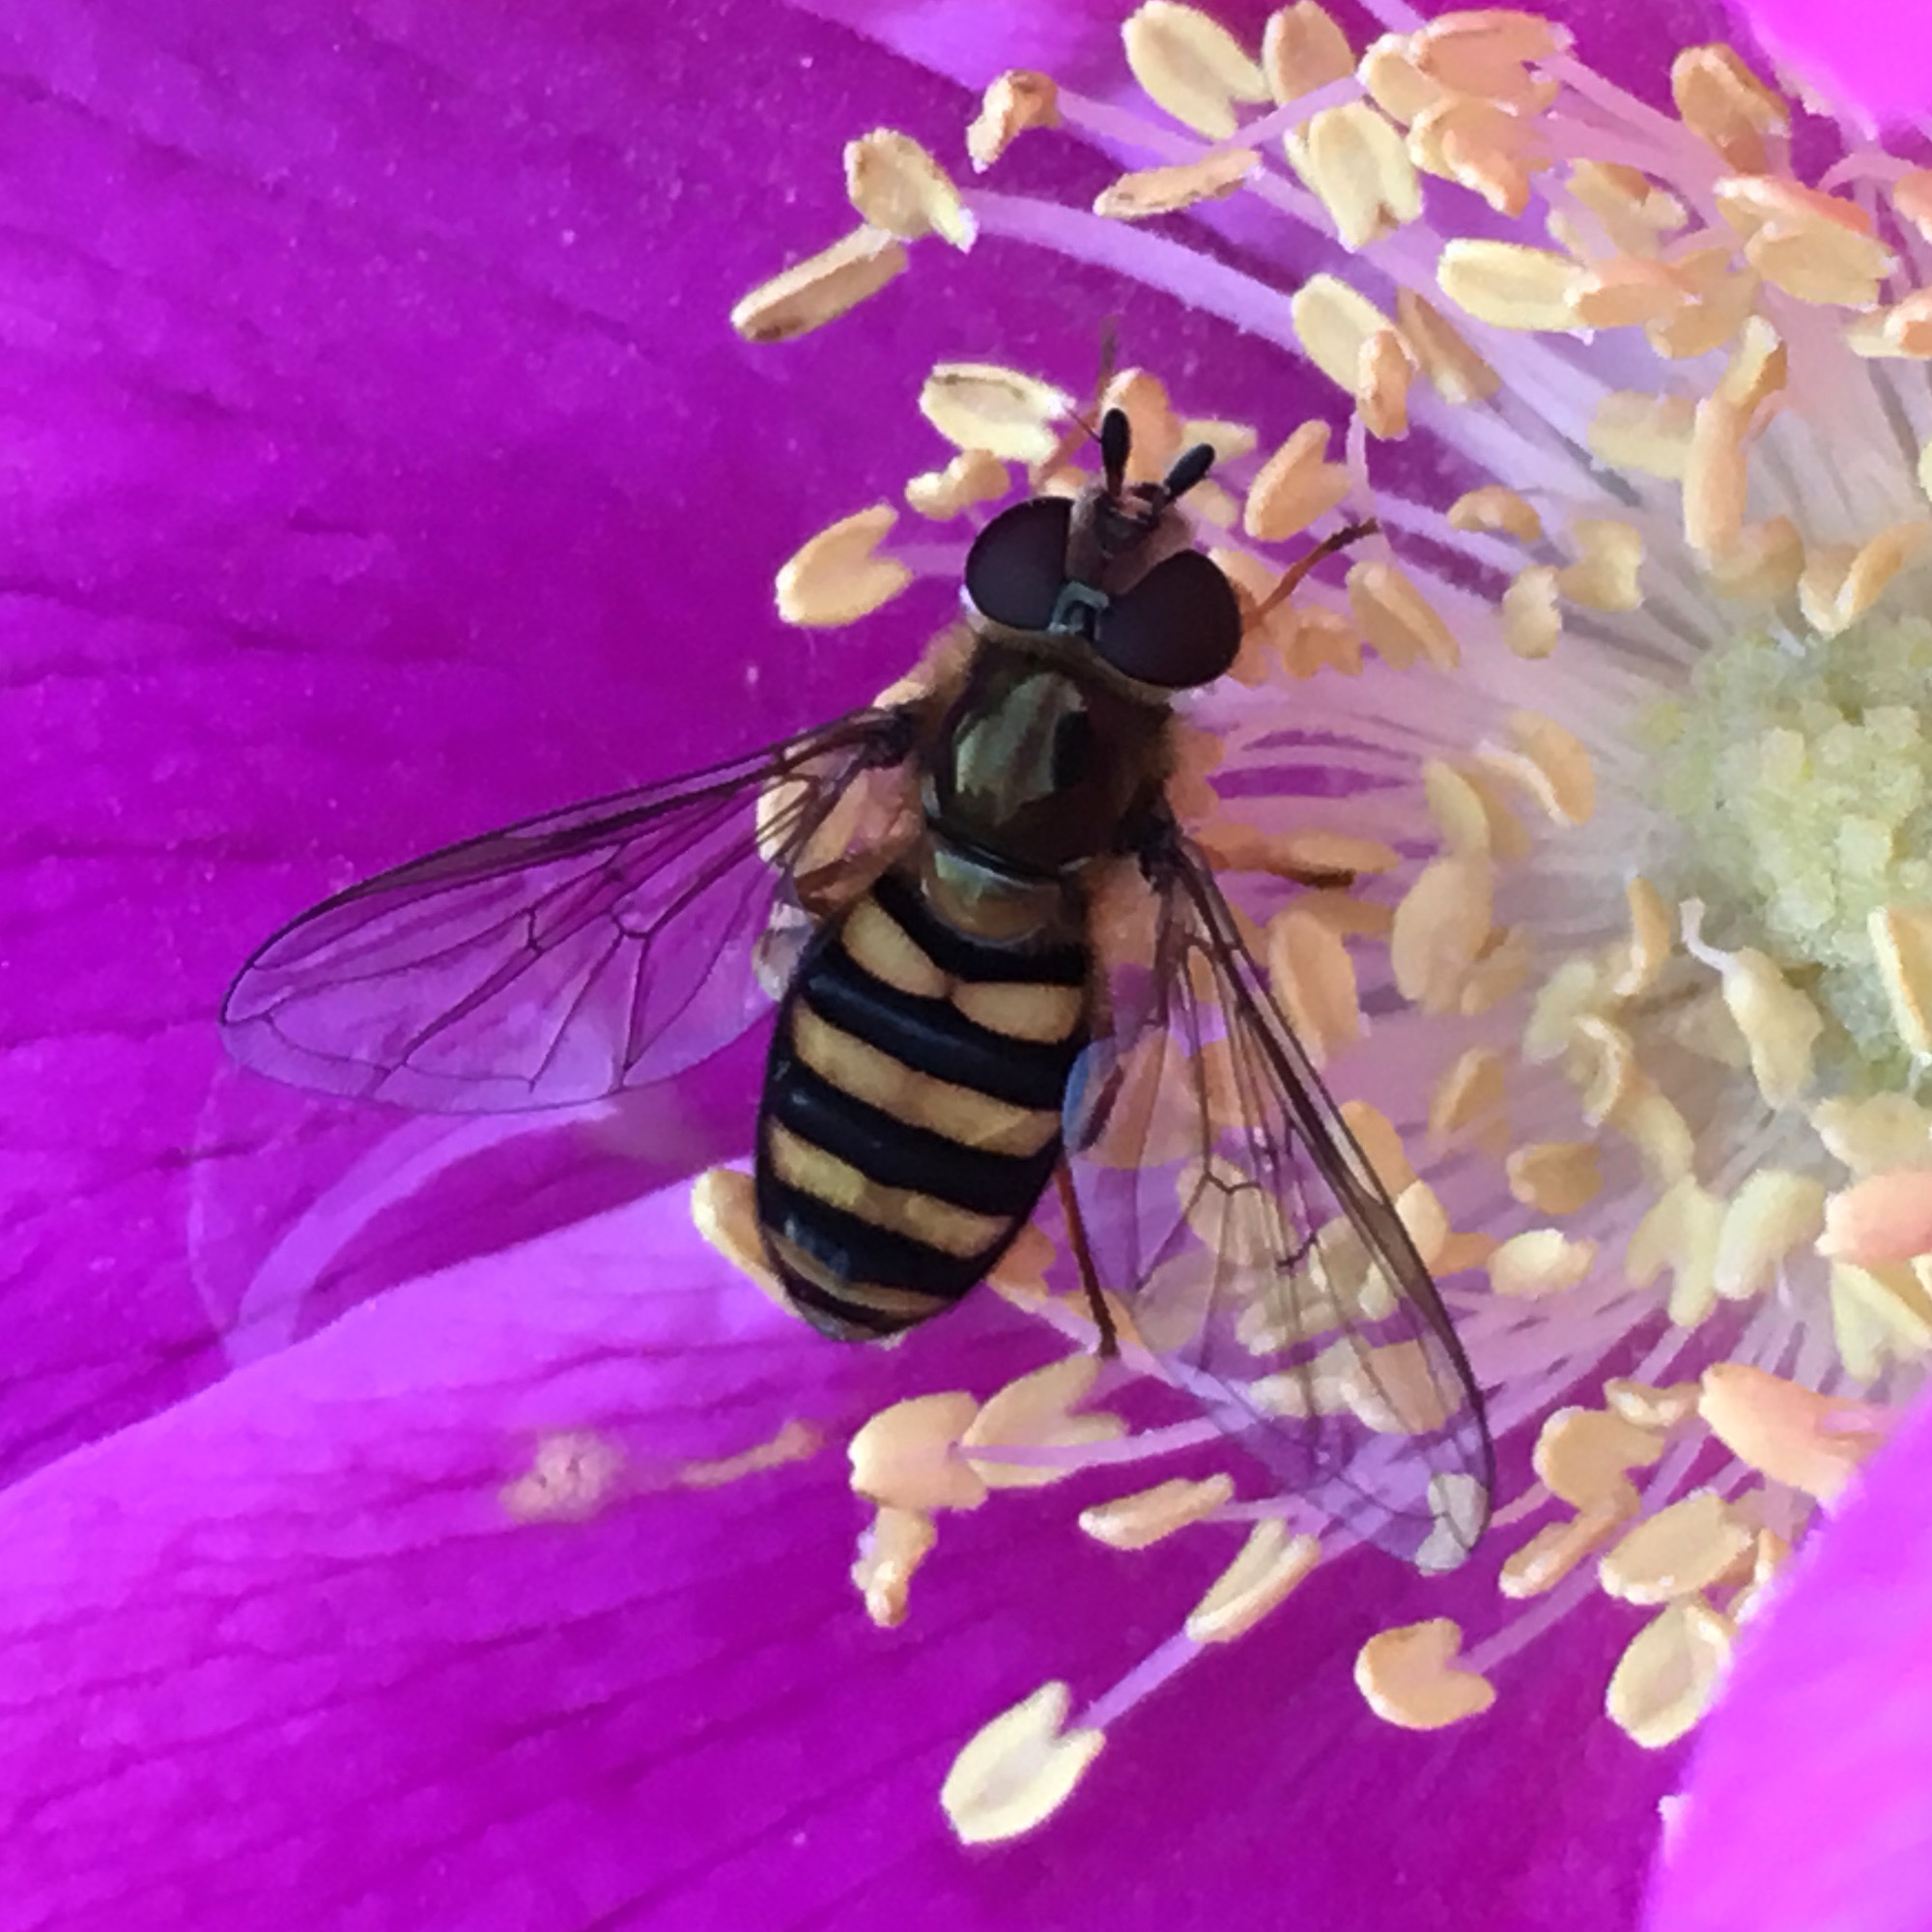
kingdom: Animalia
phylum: Arthropoda
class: Insecta
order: Diptera
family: Syrphidae
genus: Eupeodes
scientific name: Eupeodes
